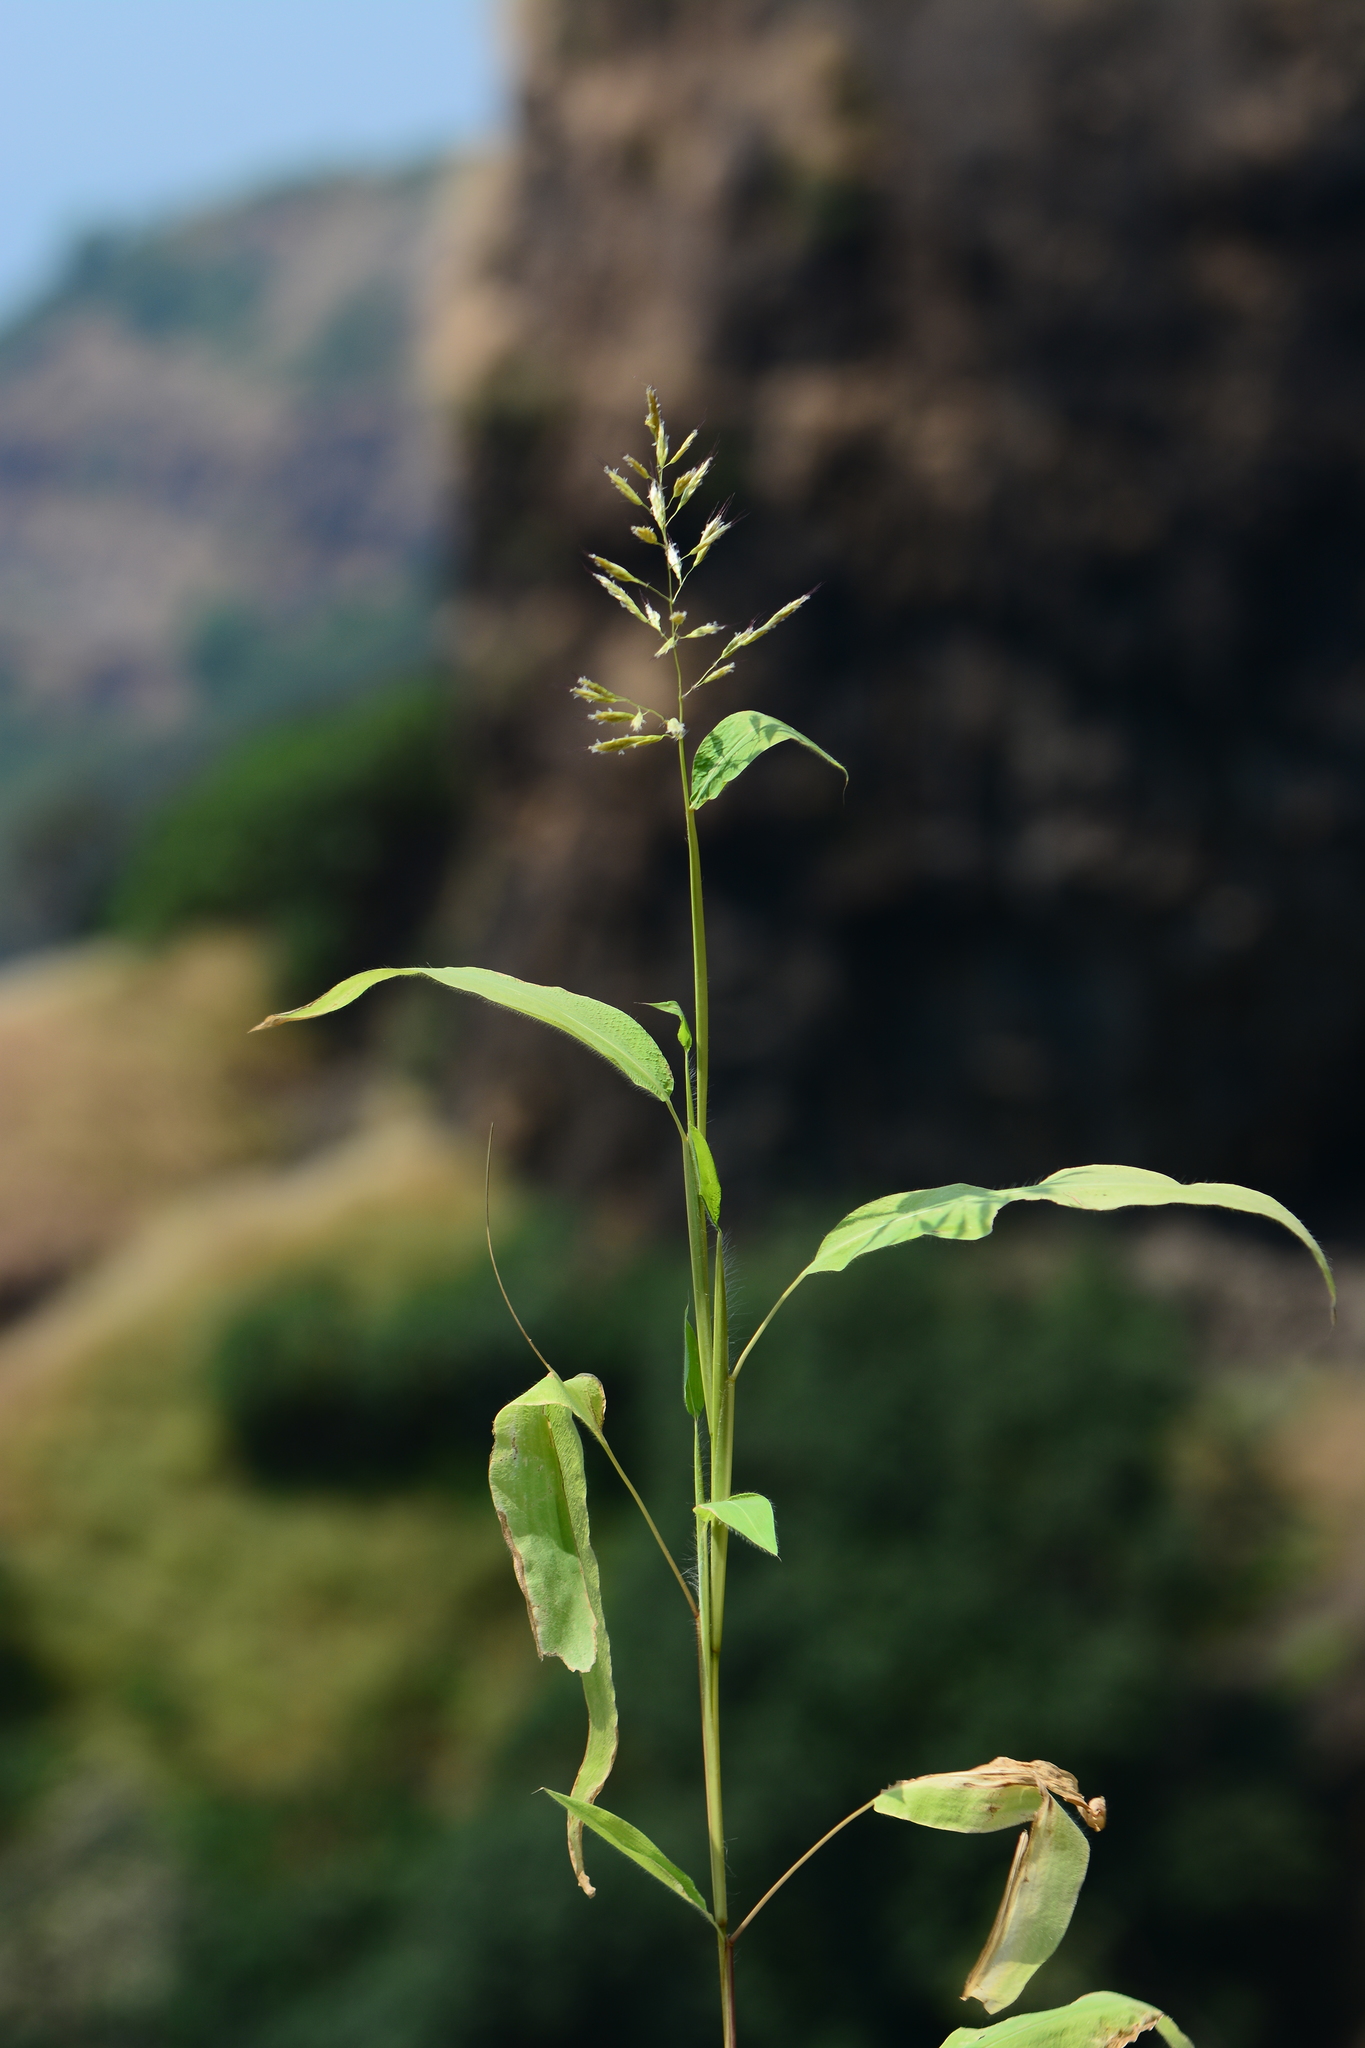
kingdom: Plantae
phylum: Tracheophyta
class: Liliopsida
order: Poales
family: Poaceae
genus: Spodiopogon
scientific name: Spodiopogon rhizophorus
